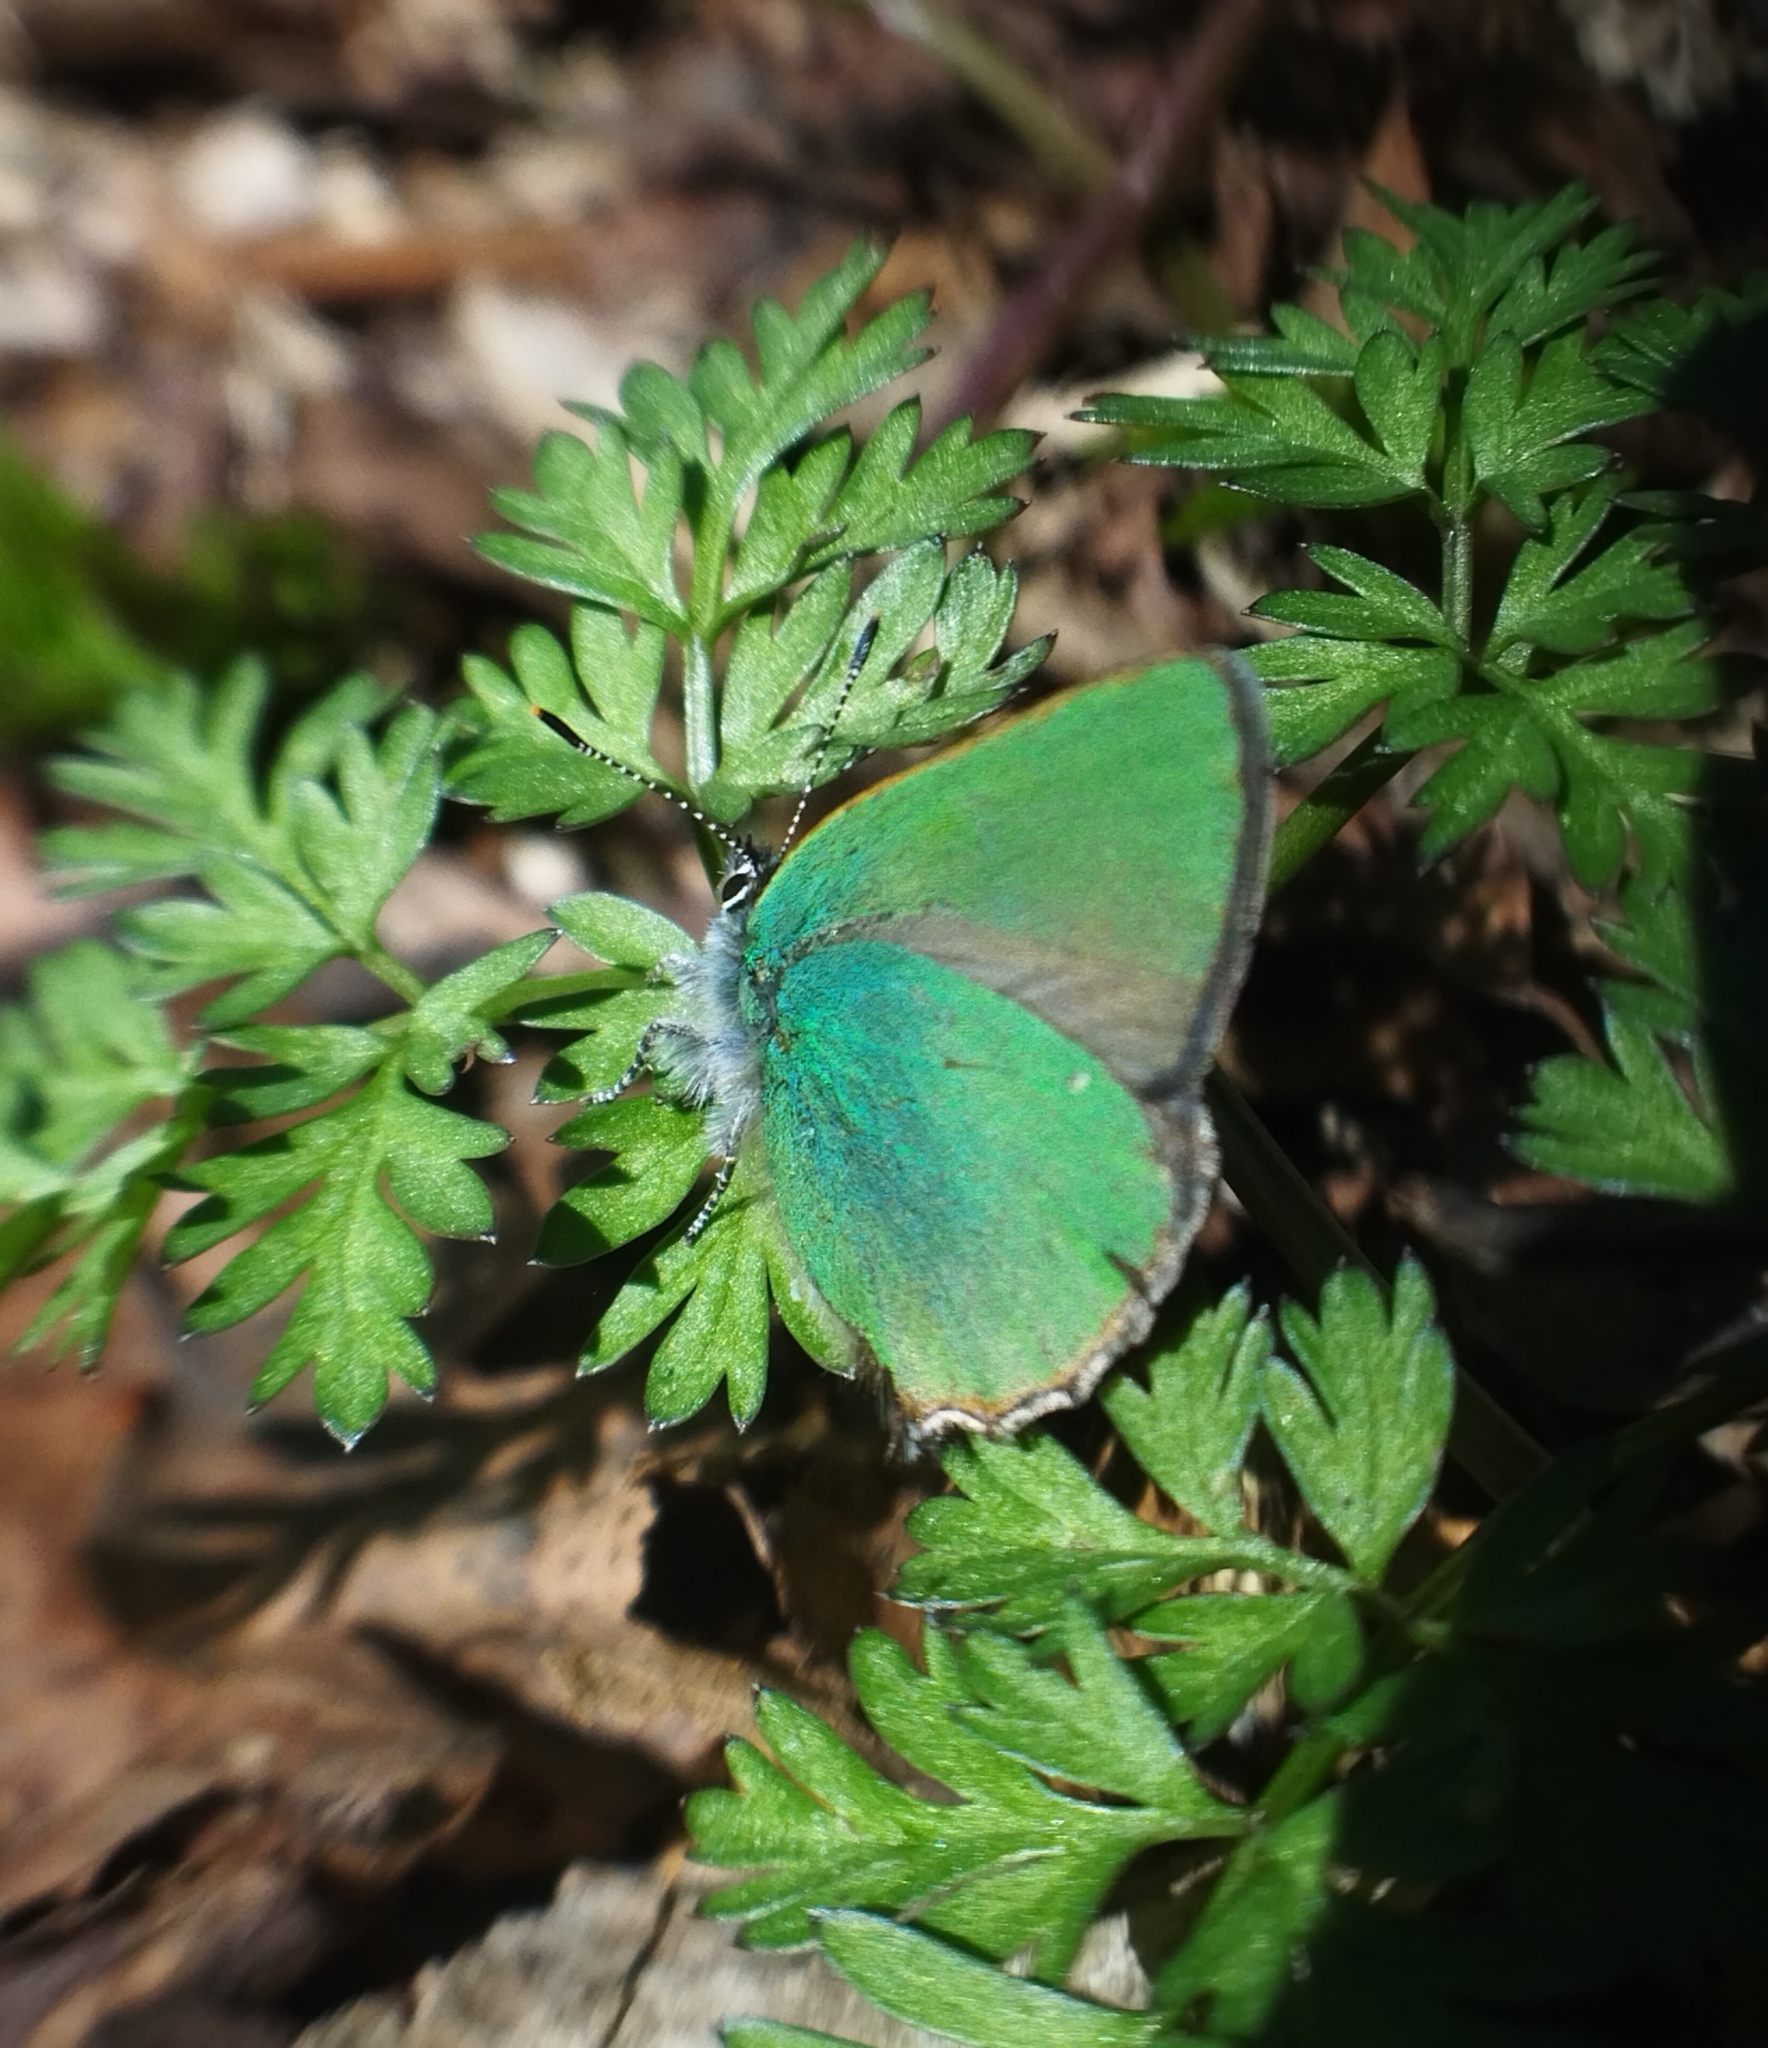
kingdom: Animalia
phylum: Arthropoda
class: Insecta
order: Lepidoptera
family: Lycaenidae
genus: Callophrys
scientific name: Callophrys rubi
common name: Green hairstreak
